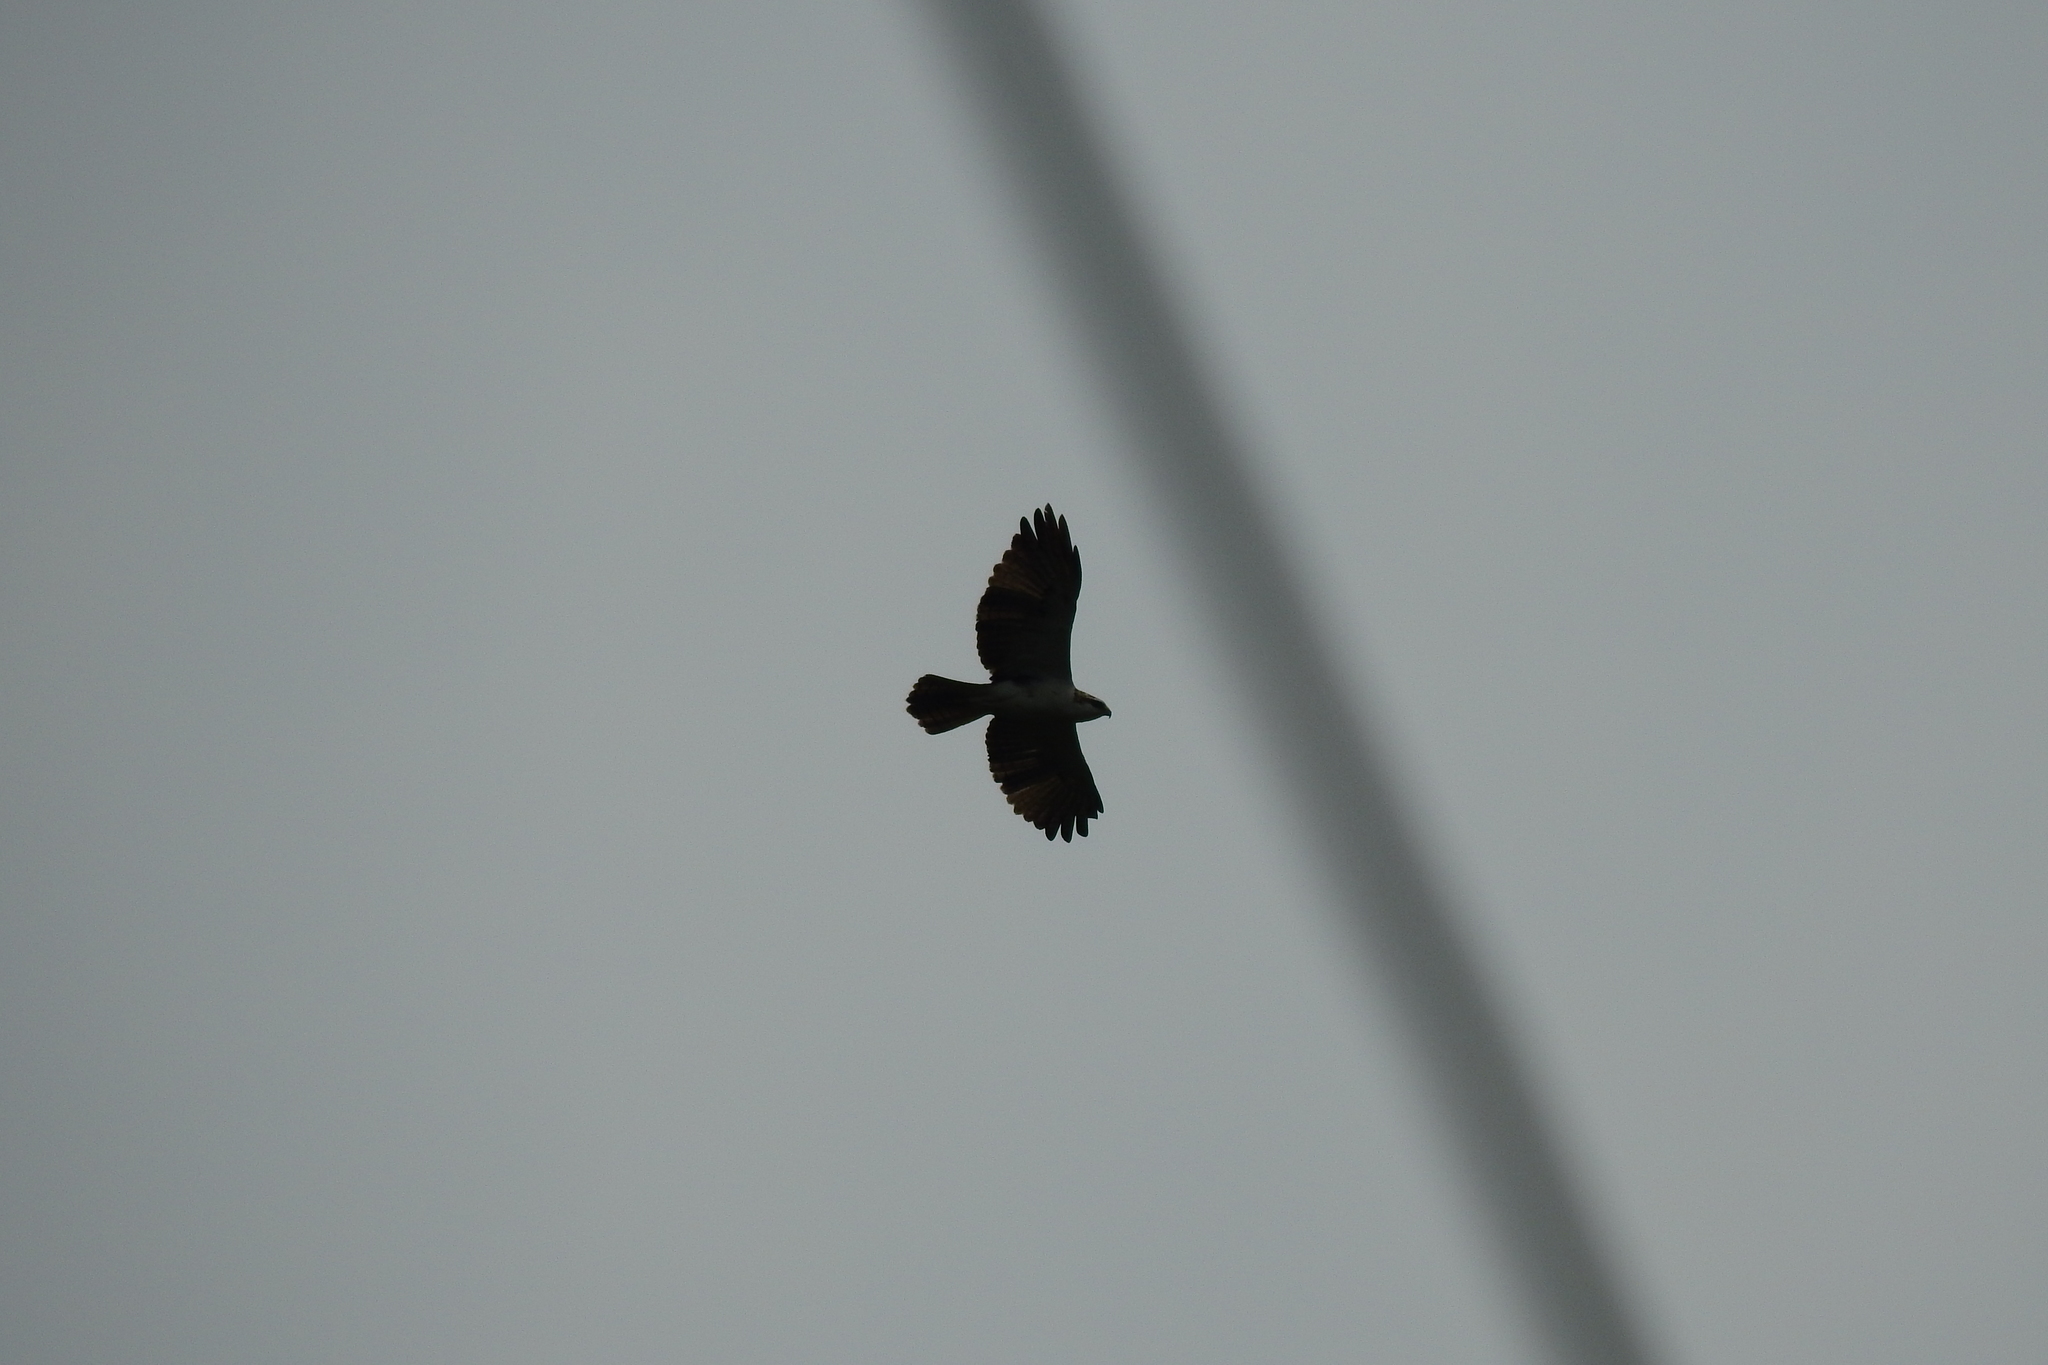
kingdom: Animalia
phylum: Chordata
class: Aves
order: Accipitriformes
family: Accipitridae
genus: Lophotriorchis
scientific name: Lophotriorchis kienerii
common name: Rufous-bellied eagle
